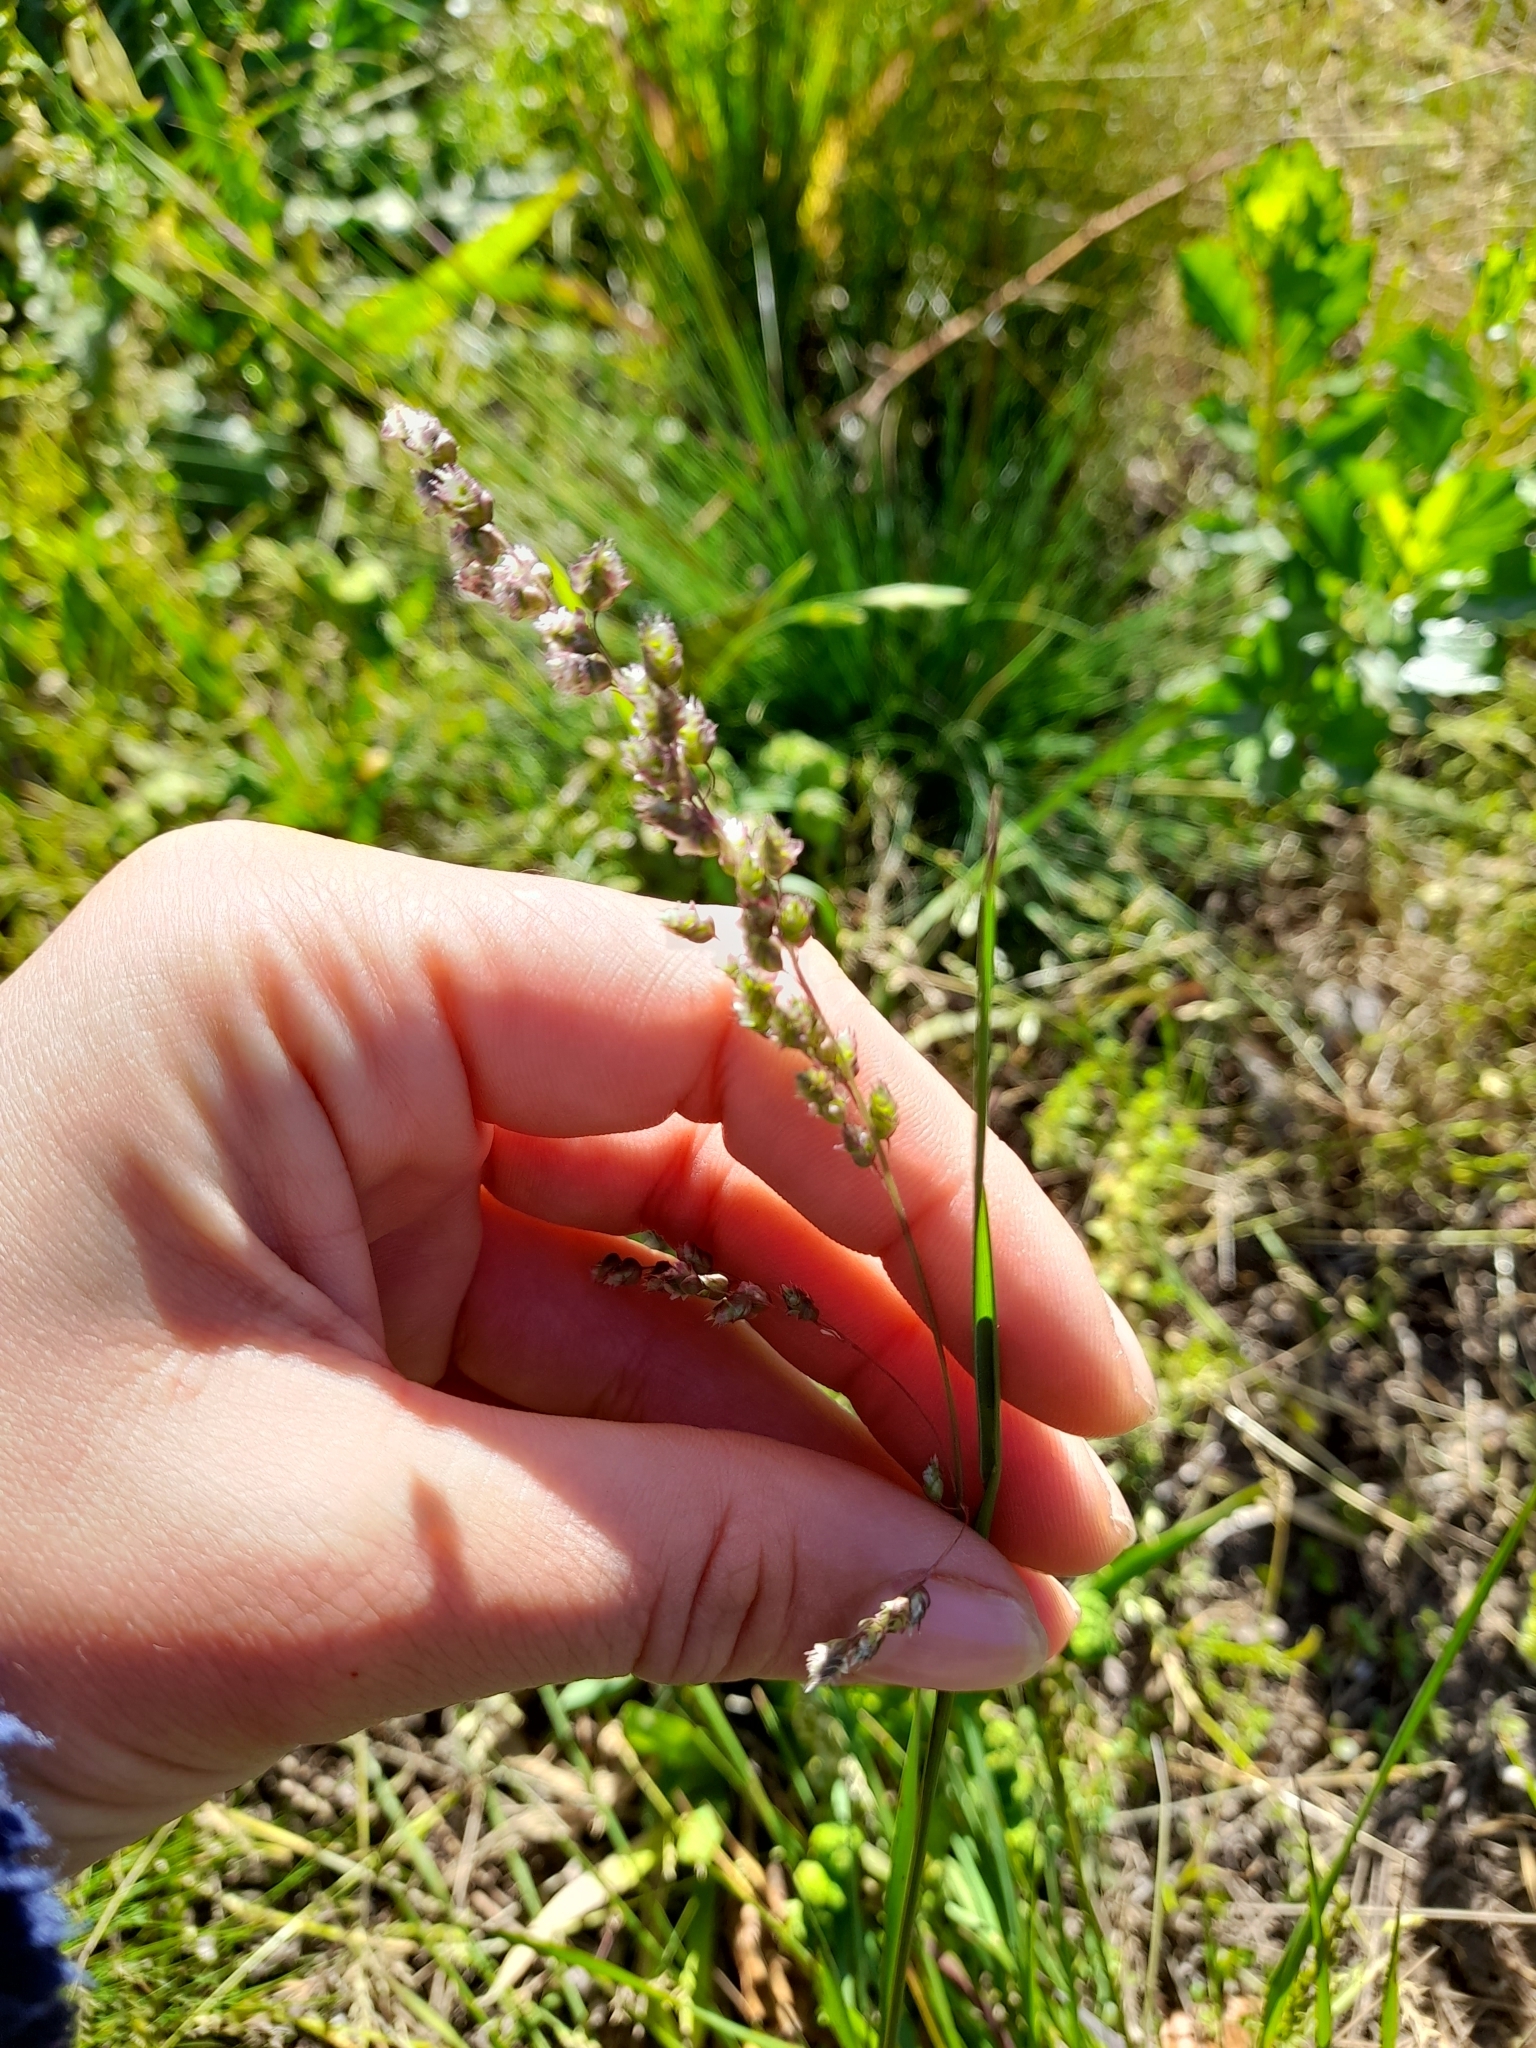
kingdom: Plantae
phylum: Tracheophyta
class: Liliopsida
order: Poales
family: Poaceae
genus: Chascolytrum
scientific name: Chascolytrum subaristatum
